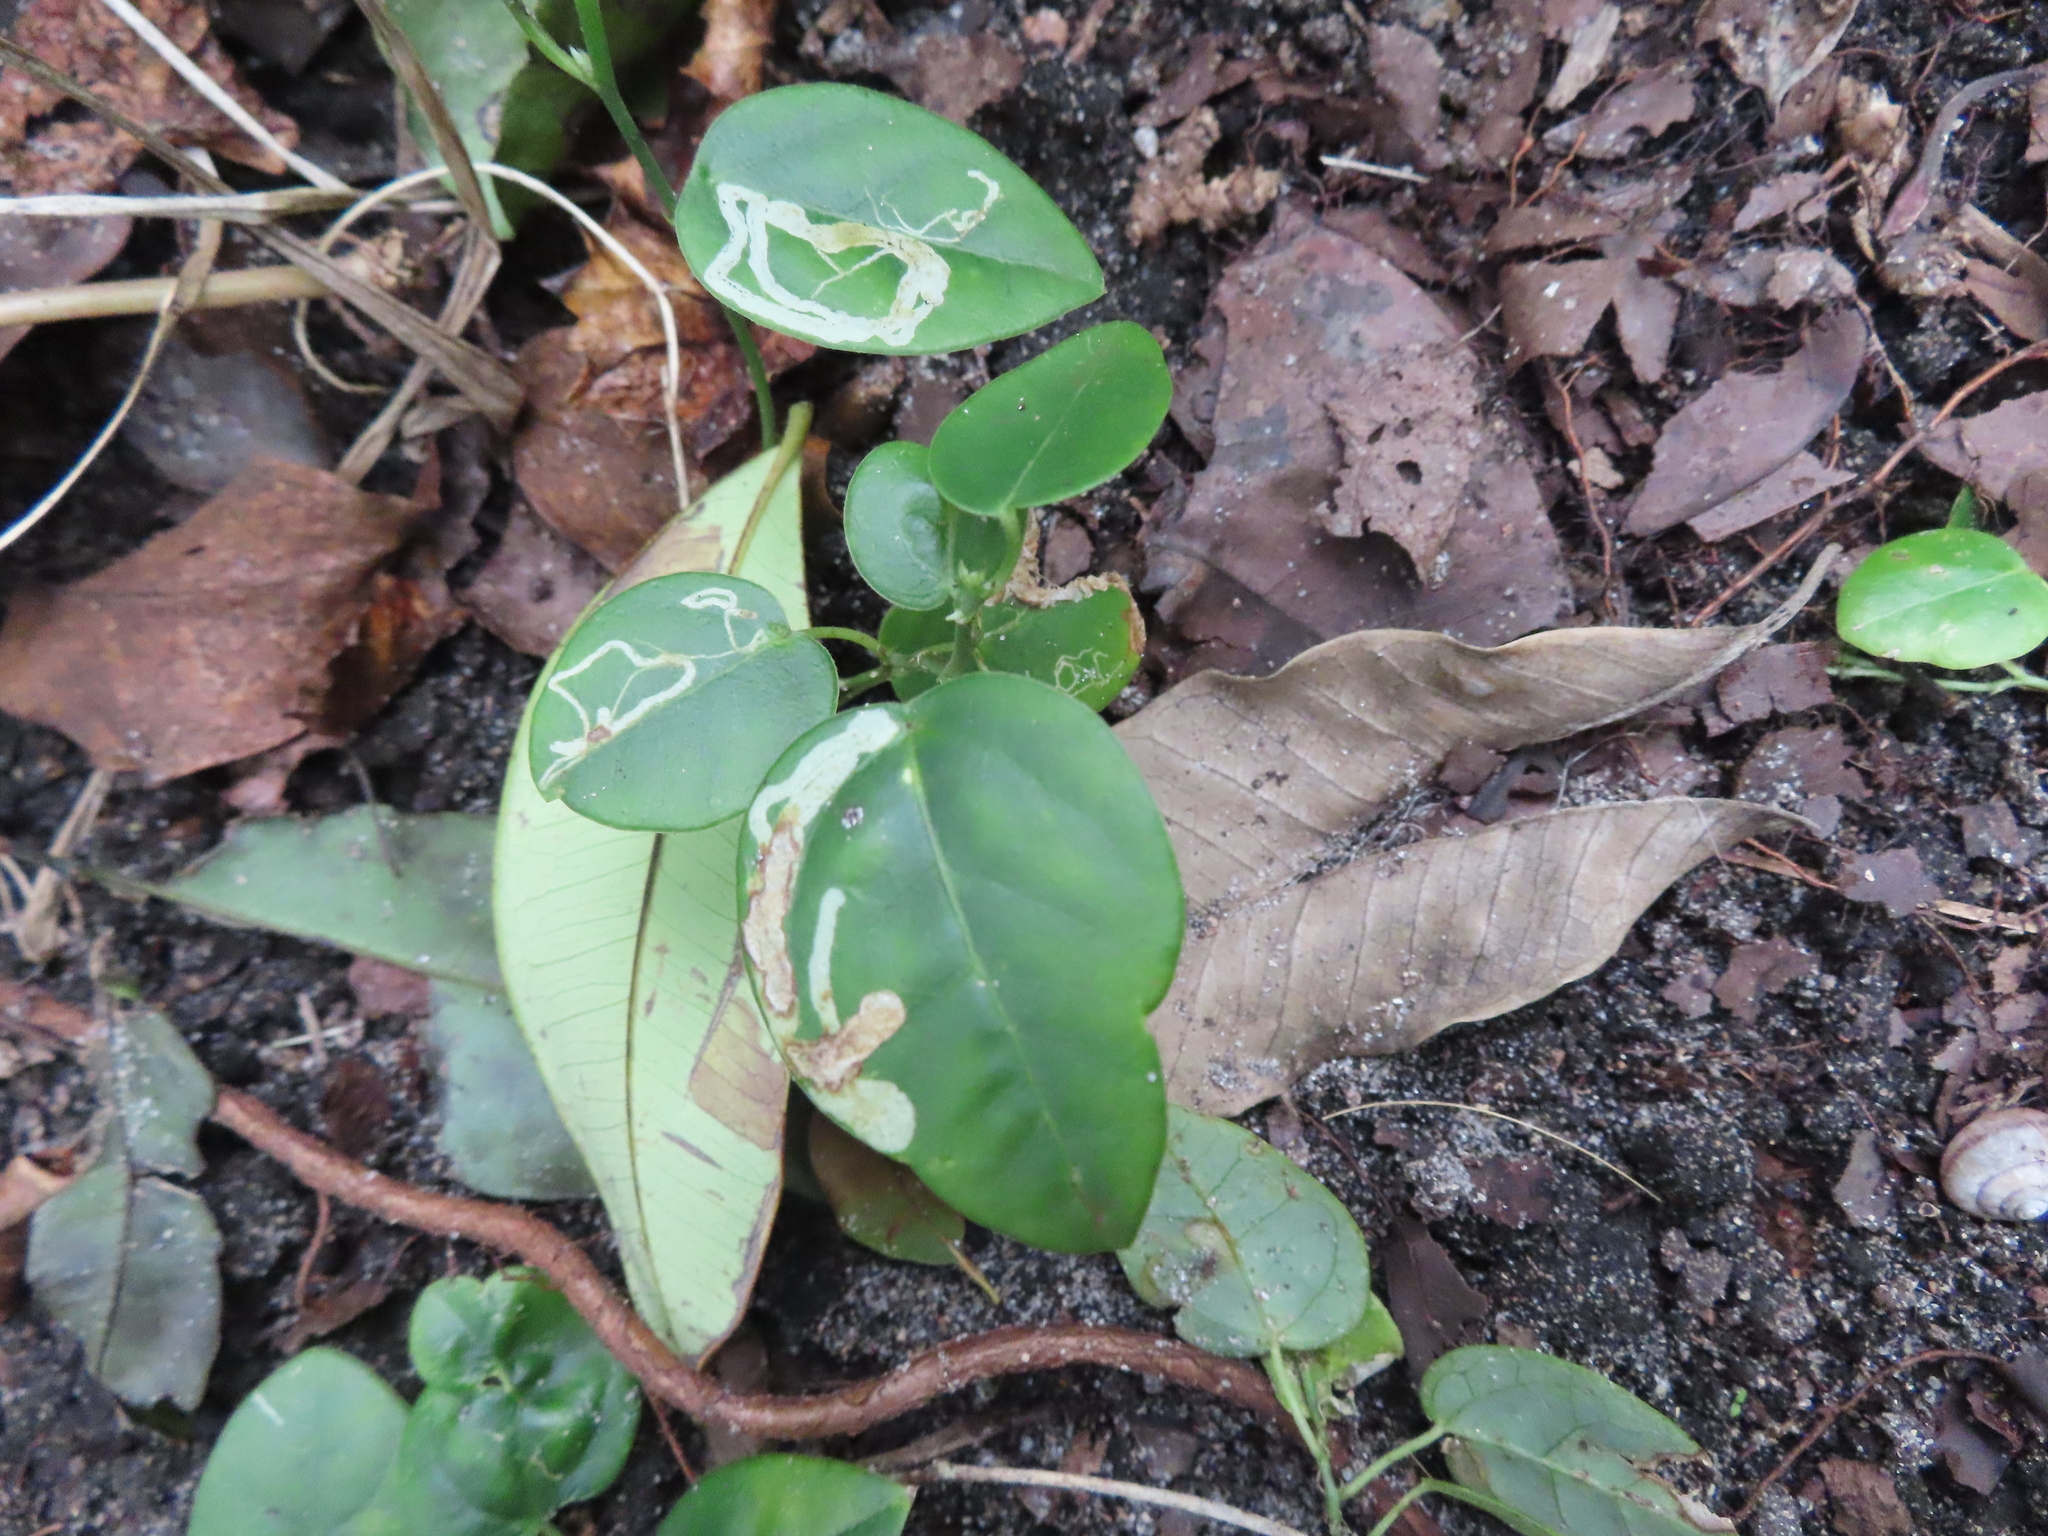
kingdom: Plantae
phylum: Tracheophyta
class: Magnoliopsida
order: Malpighiales
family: Passifloraceae
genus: Passiflora
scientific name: Passiflora pallida
